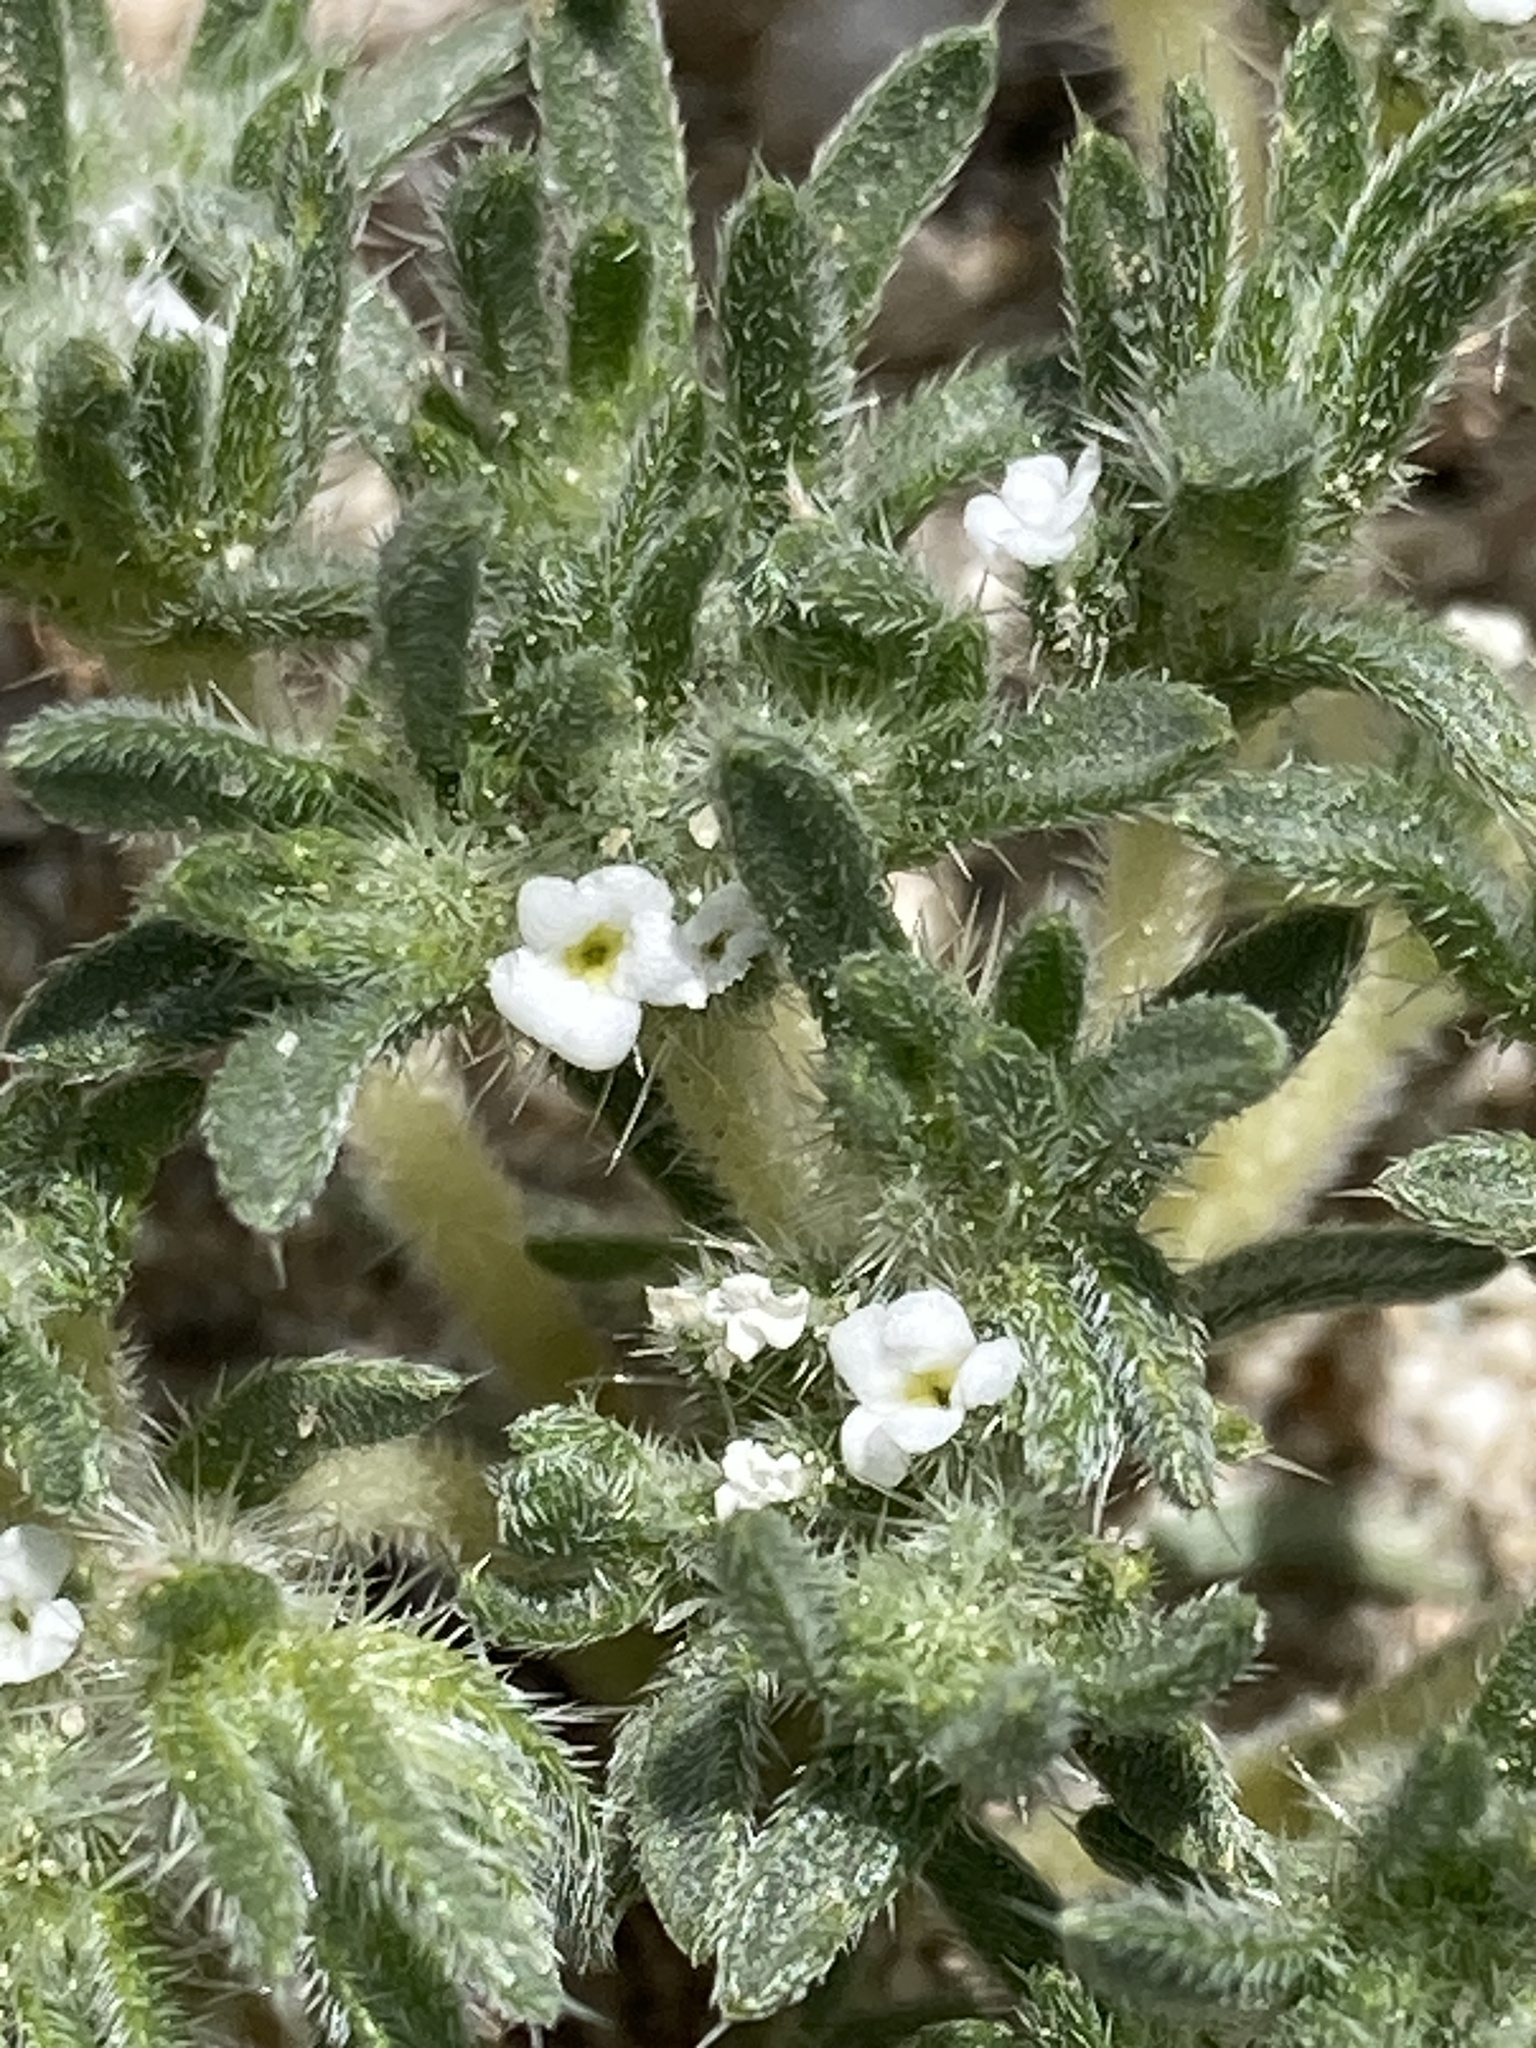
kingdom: Plantae
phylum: Tracheophyta
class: Magnoliopsida
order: Boraginales
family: Boraginaceae
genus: Greeneocharis
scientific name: Greeneocharis circumscissa
